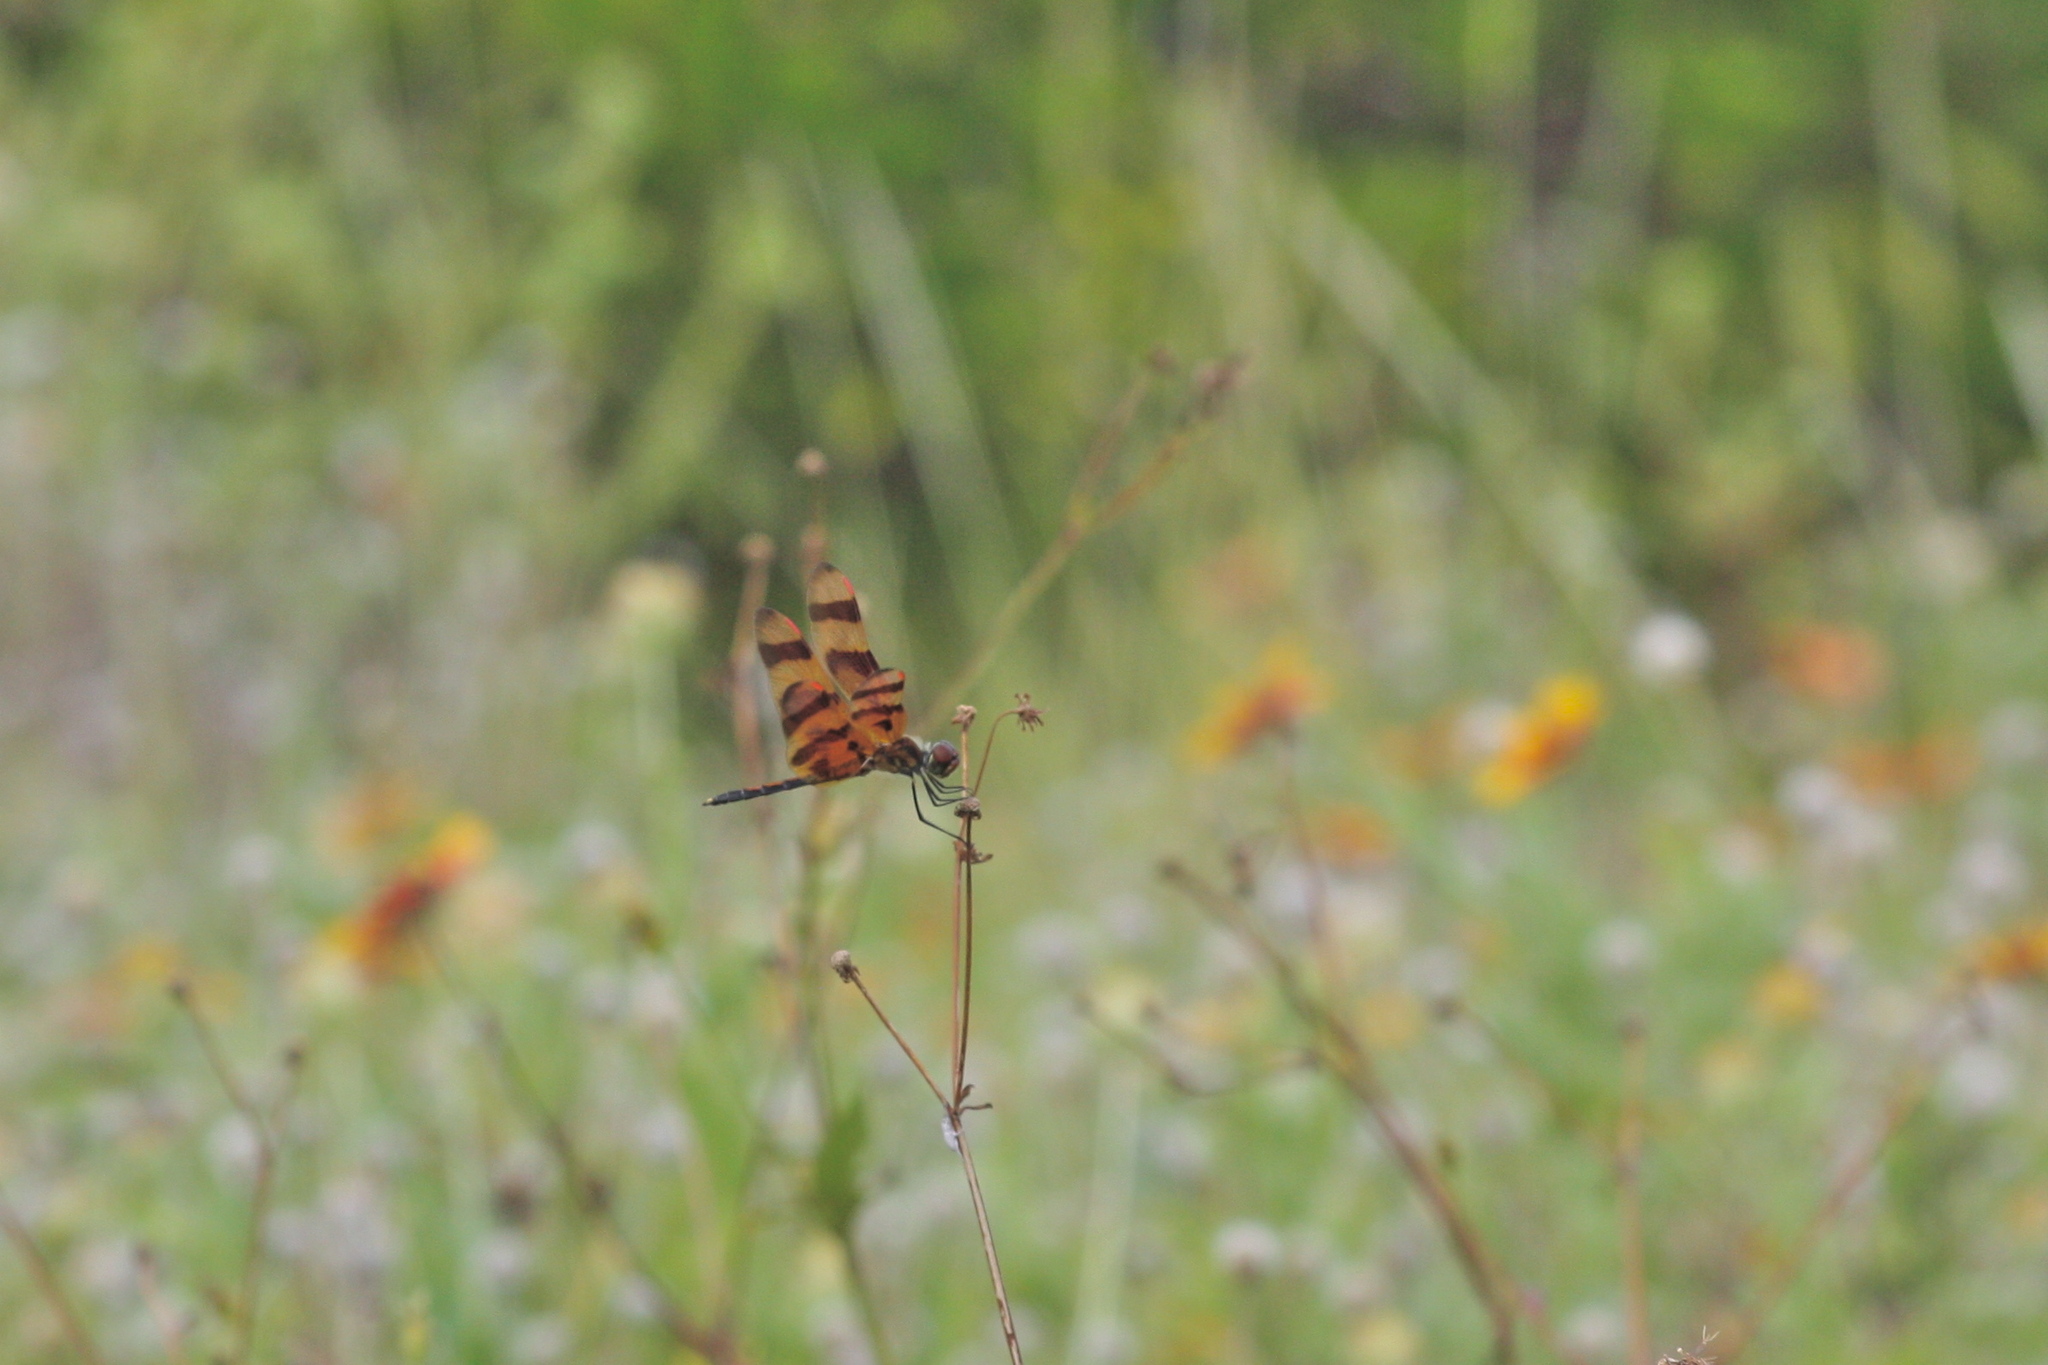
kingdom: Animalia
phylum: Arthropoda
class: Insecta
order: Odonata
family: Libellulidae
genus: Celithemis
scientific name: Celithemis eponina
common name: Halloween pennant
